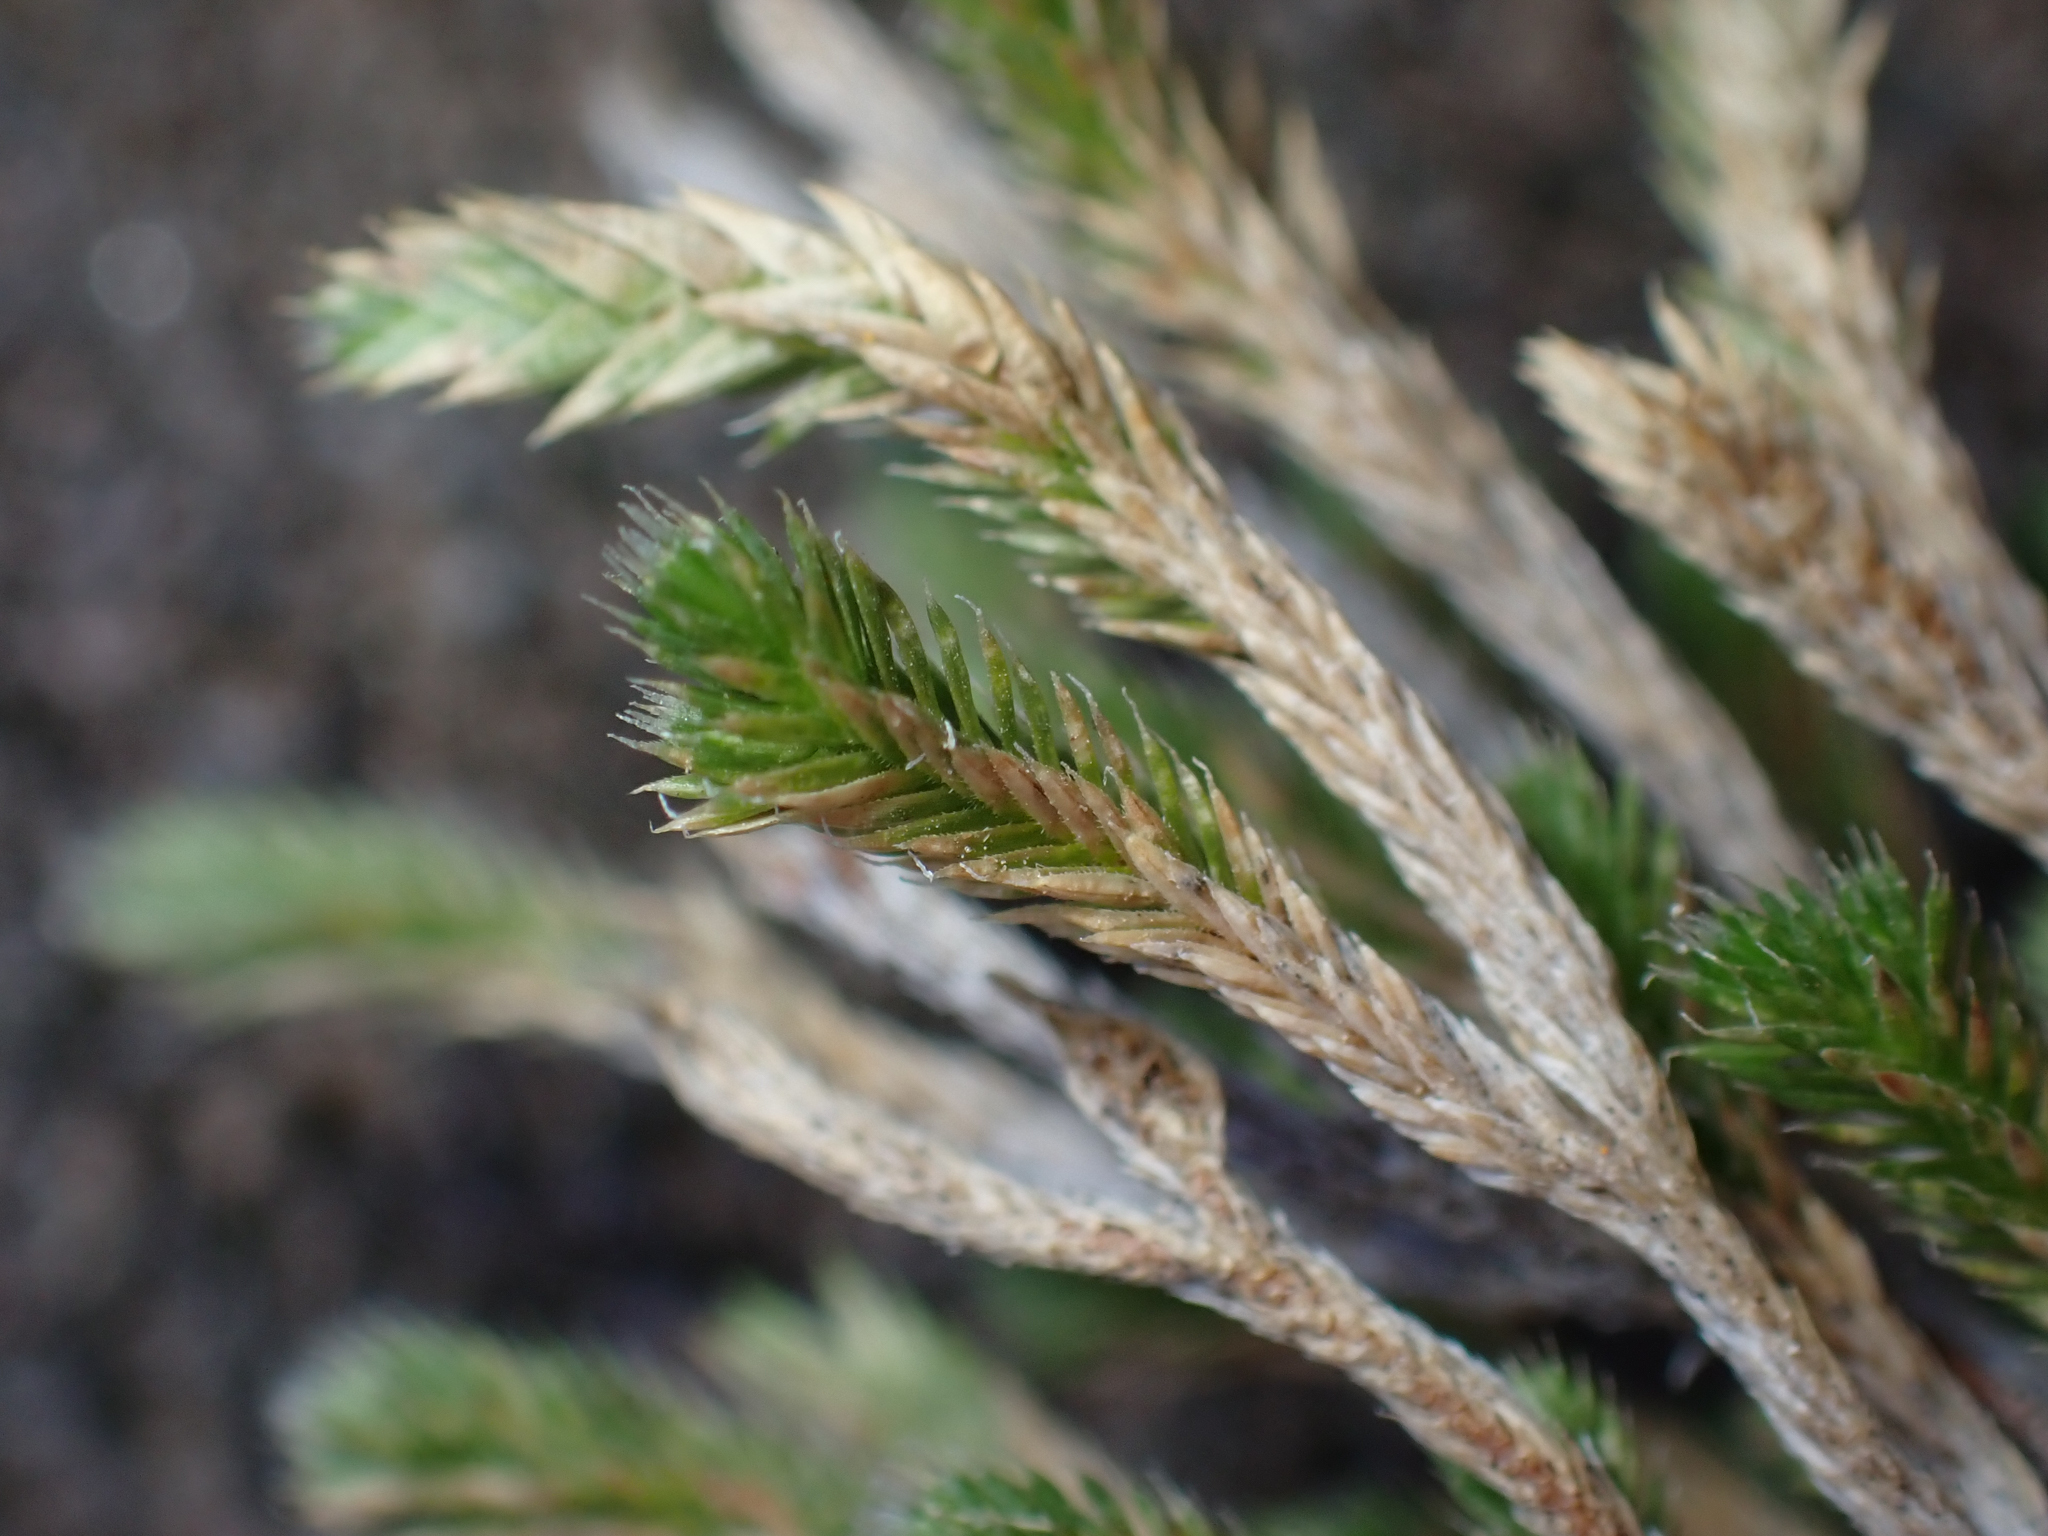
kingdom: Plantae
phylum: Tracheophyta
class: Lycopodiopsida
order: Selaginellales
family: Selaginellaceae
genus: Selaginella
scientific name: Selaginella bigelovii
